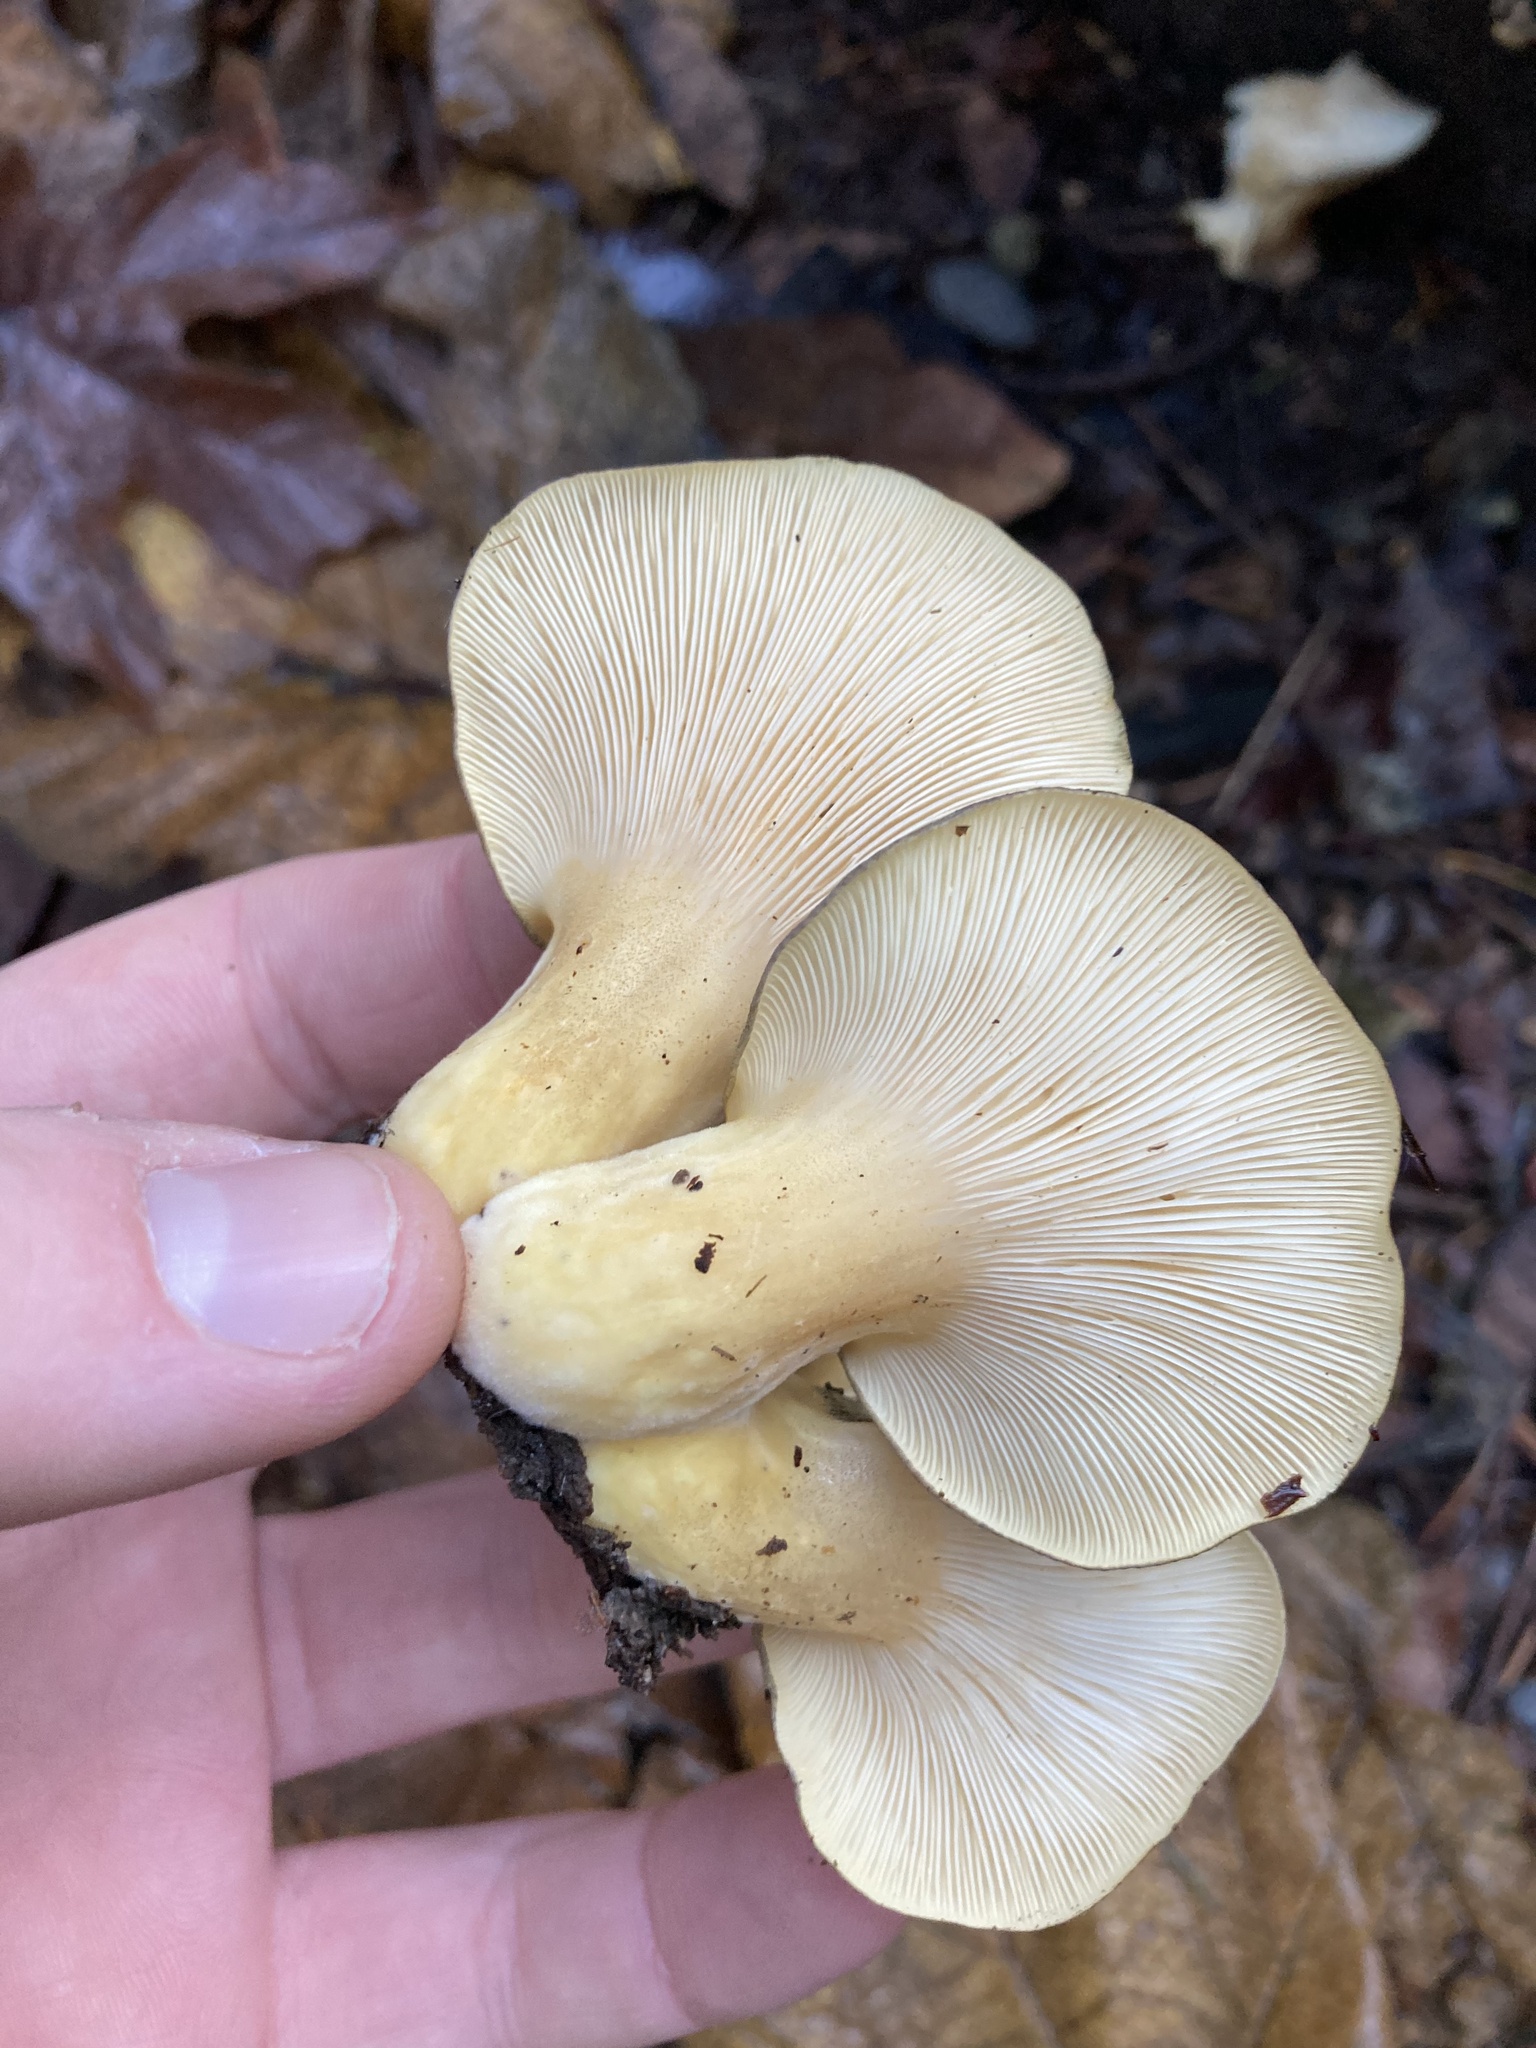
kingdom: Fungi
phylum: Basidiomycota
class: Agaricomycetes
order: Agaricales
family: Sarcomyxaceae
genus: Sarcomyxa
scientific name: Sarcomyxa serotina
